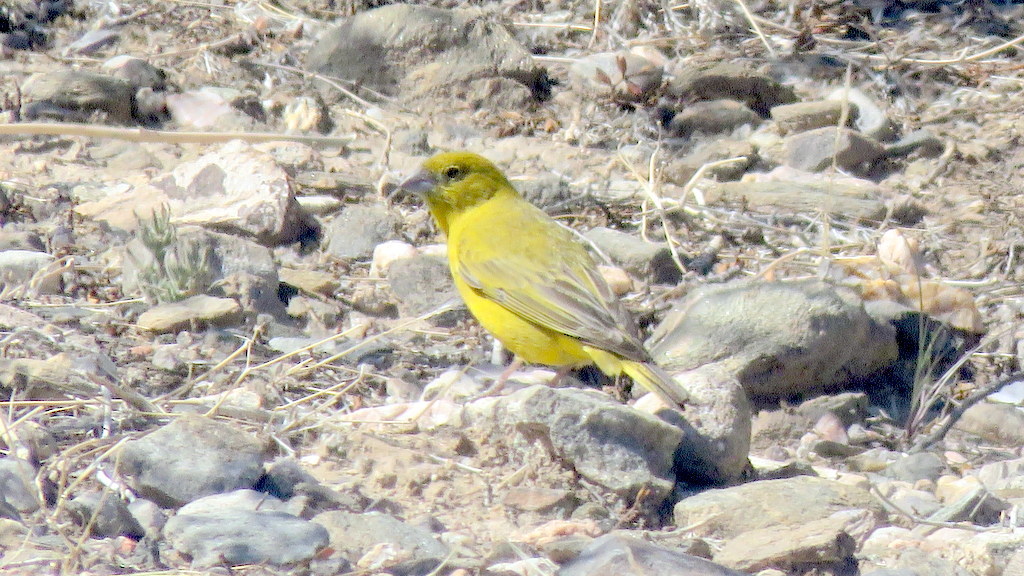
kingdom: Animalia
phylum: Chordata
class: Aves
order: Passeriformes
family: Thraupidae
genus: Sicalis
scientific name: Sicalis mendozae
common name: Monte yellow-finch
